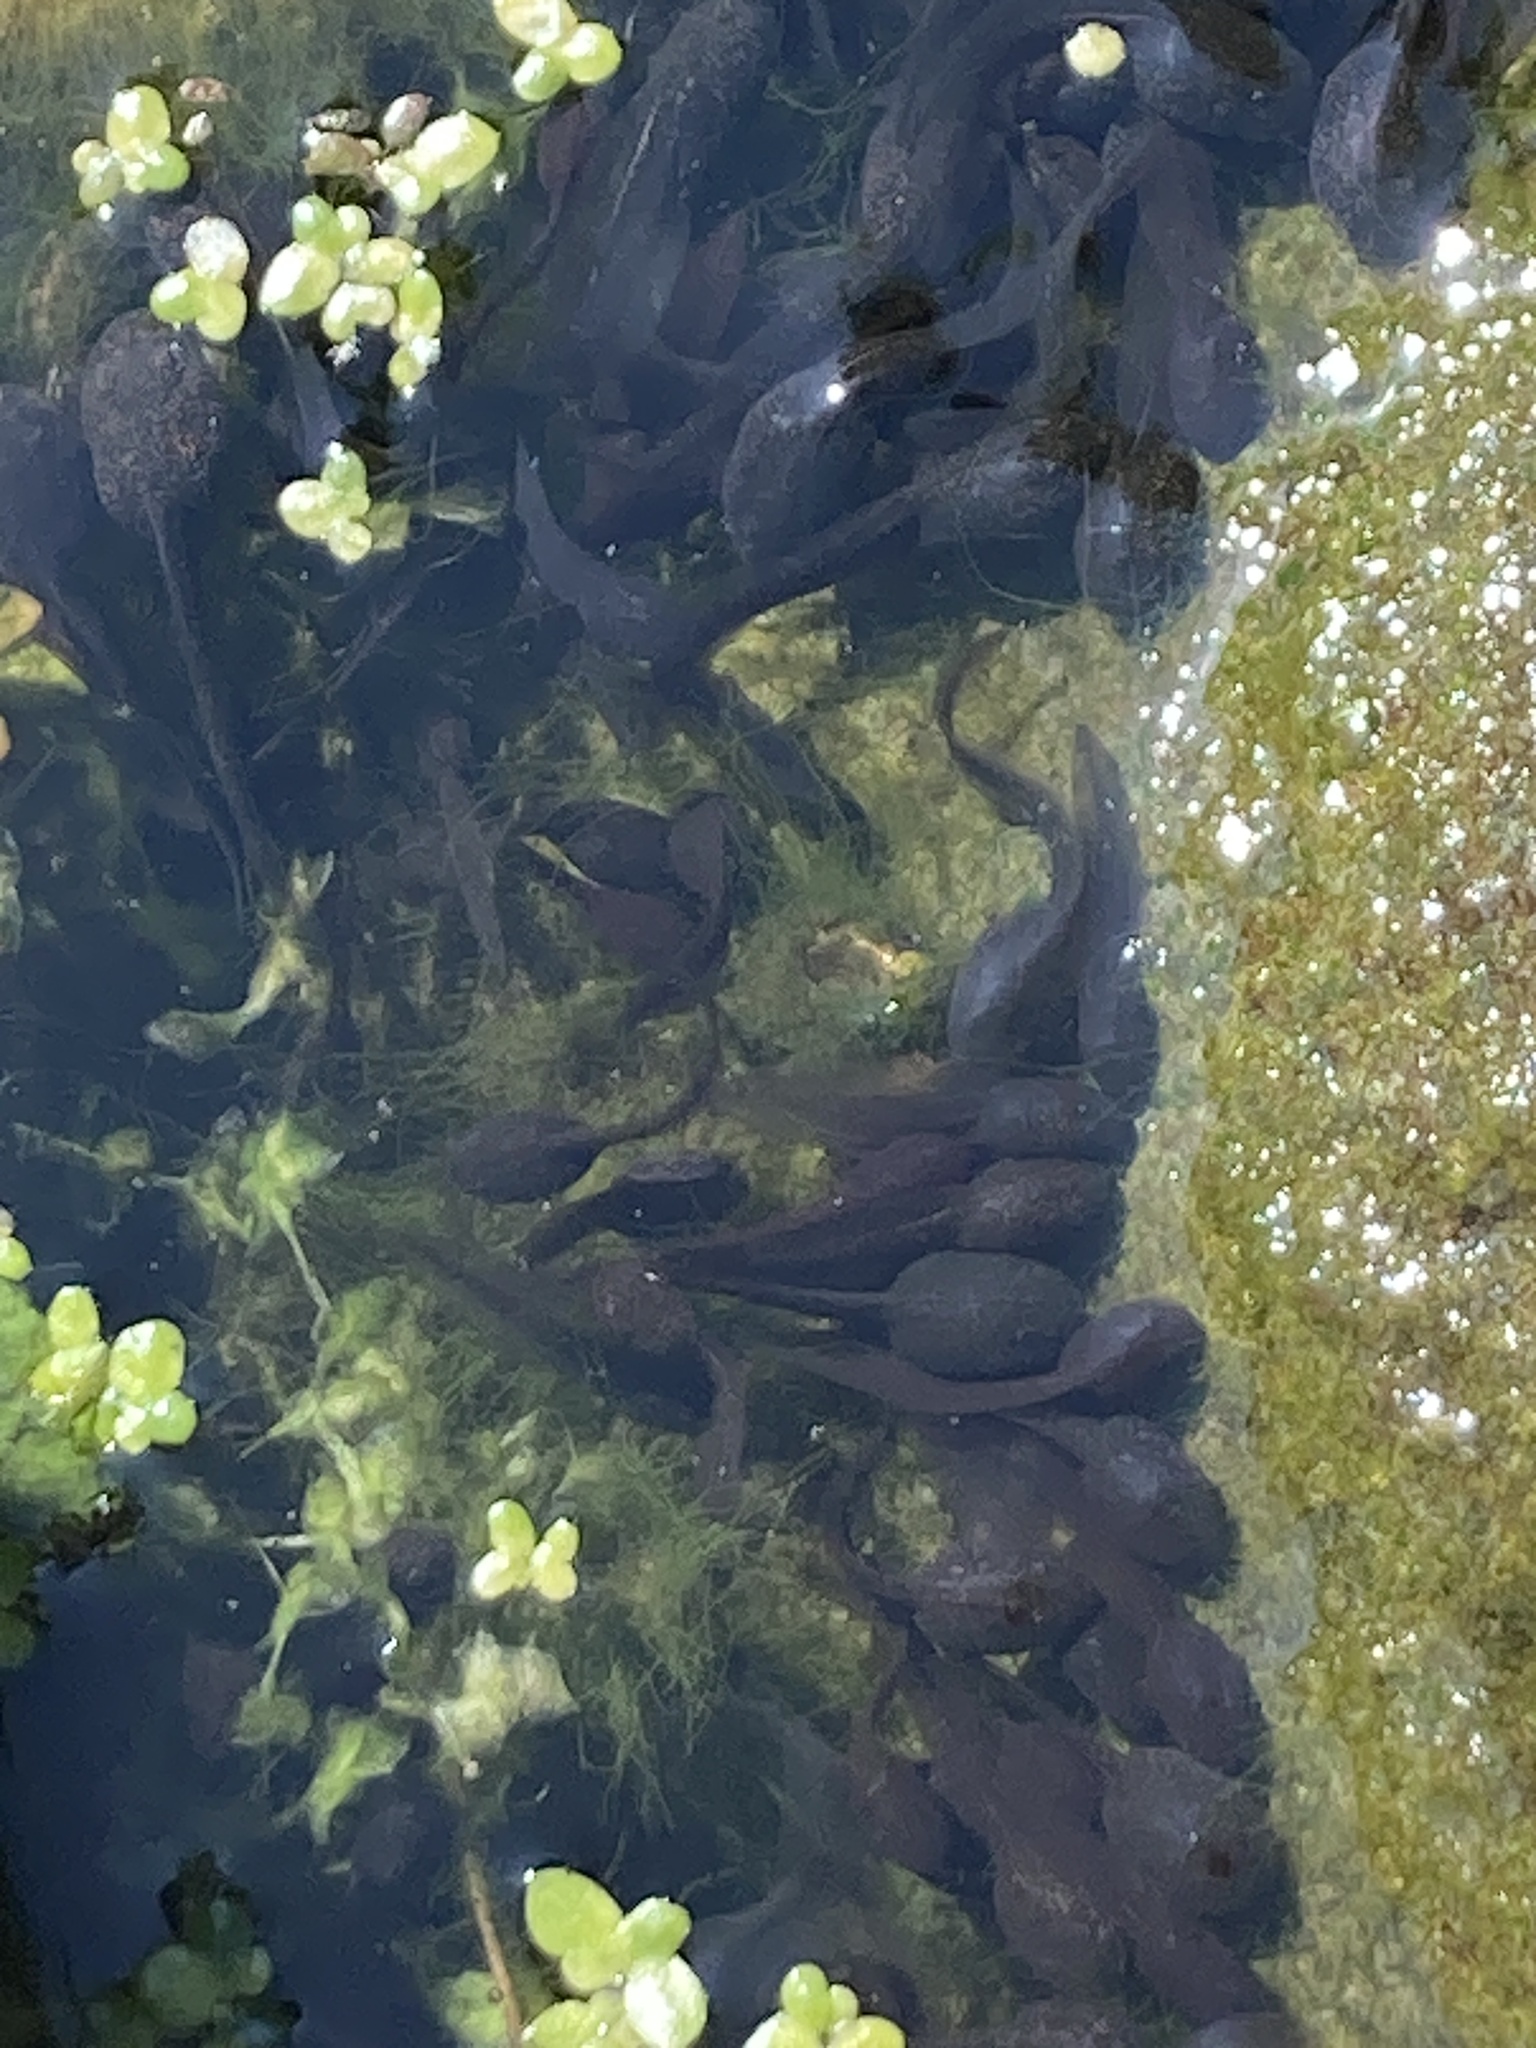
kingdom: Animalia
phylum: Chordata
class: Amphibia
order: Anura
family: Ranidae
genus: Rana
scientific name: Rana temporaria
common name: Common frog
